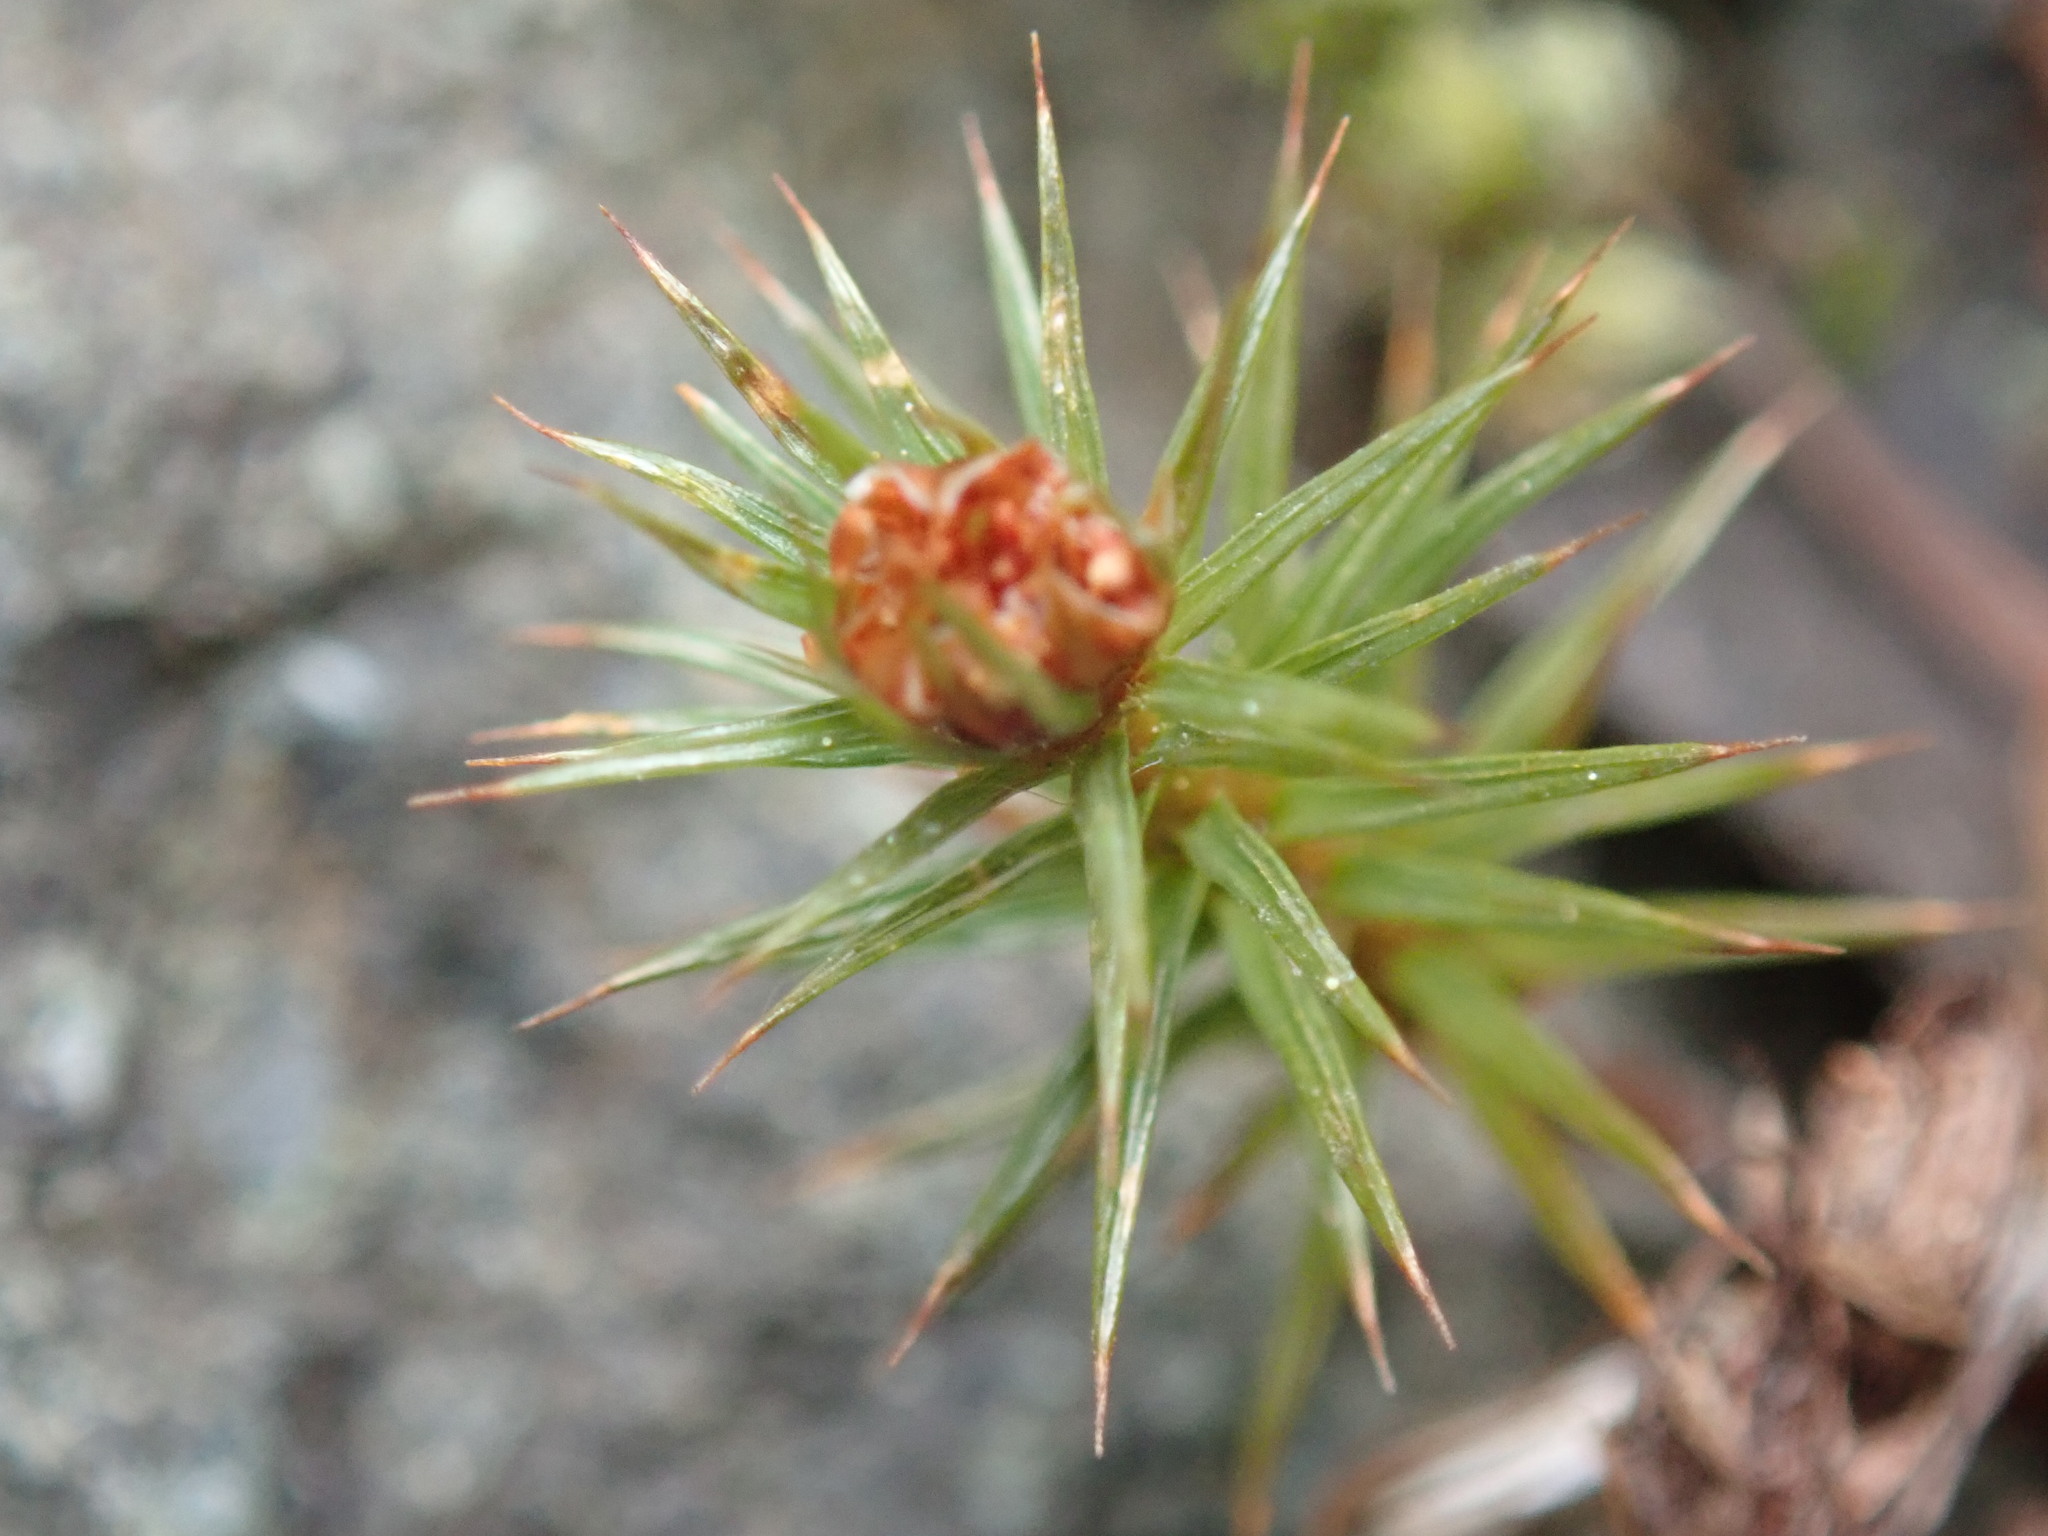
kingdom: Plantae
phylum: Bryophyta
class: Polytrichopsida
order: Polytrichales
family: Polytrichaceae
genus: Polytrichum
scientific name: Polytrichum juniperinum
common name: Juniper haircap moss
